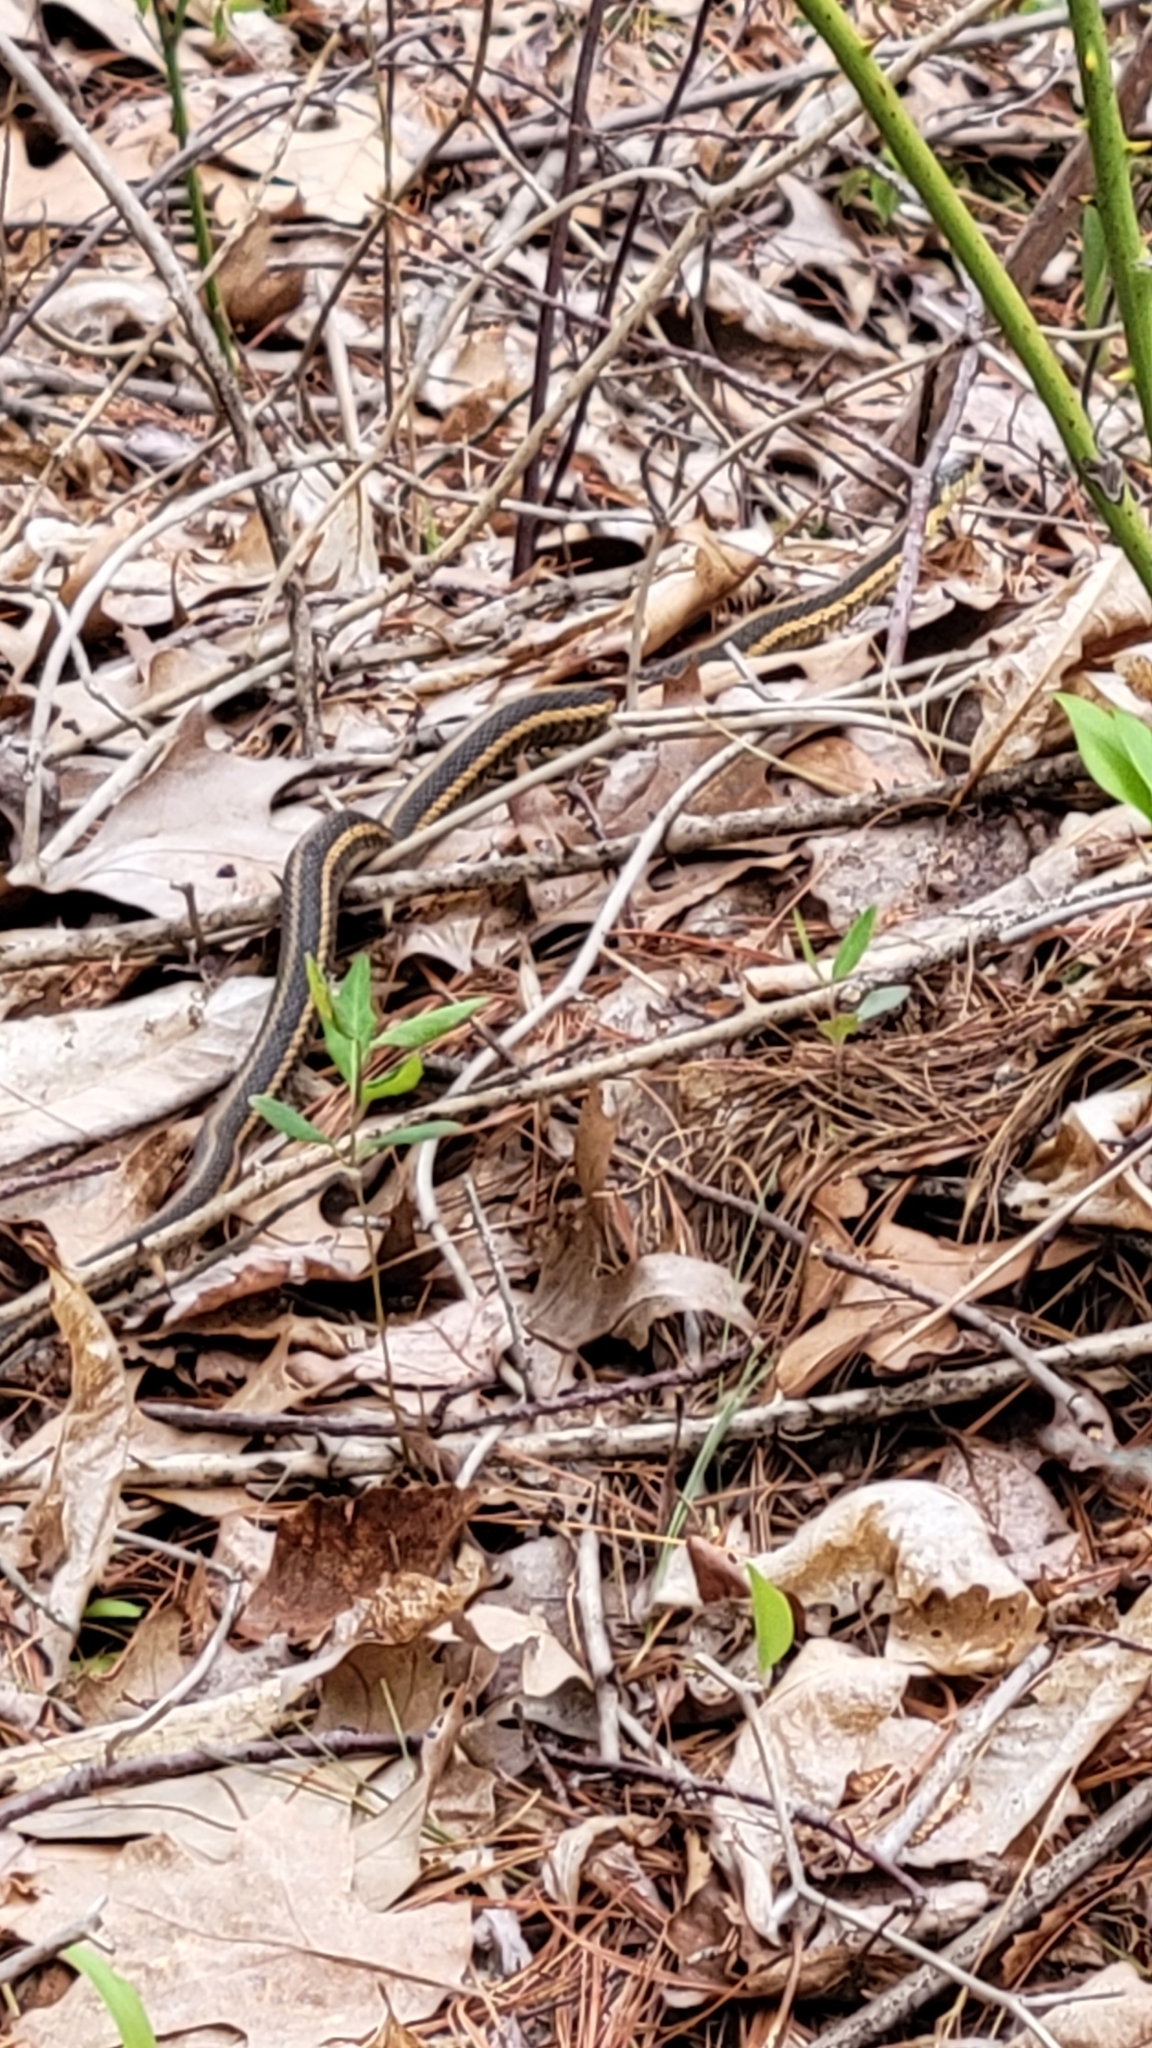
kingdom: Animalia
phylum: Chordata
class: Squamata
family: Colubridae
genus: Thamnophis
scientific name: Thamnophis sirtalis
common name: Common garter snake
